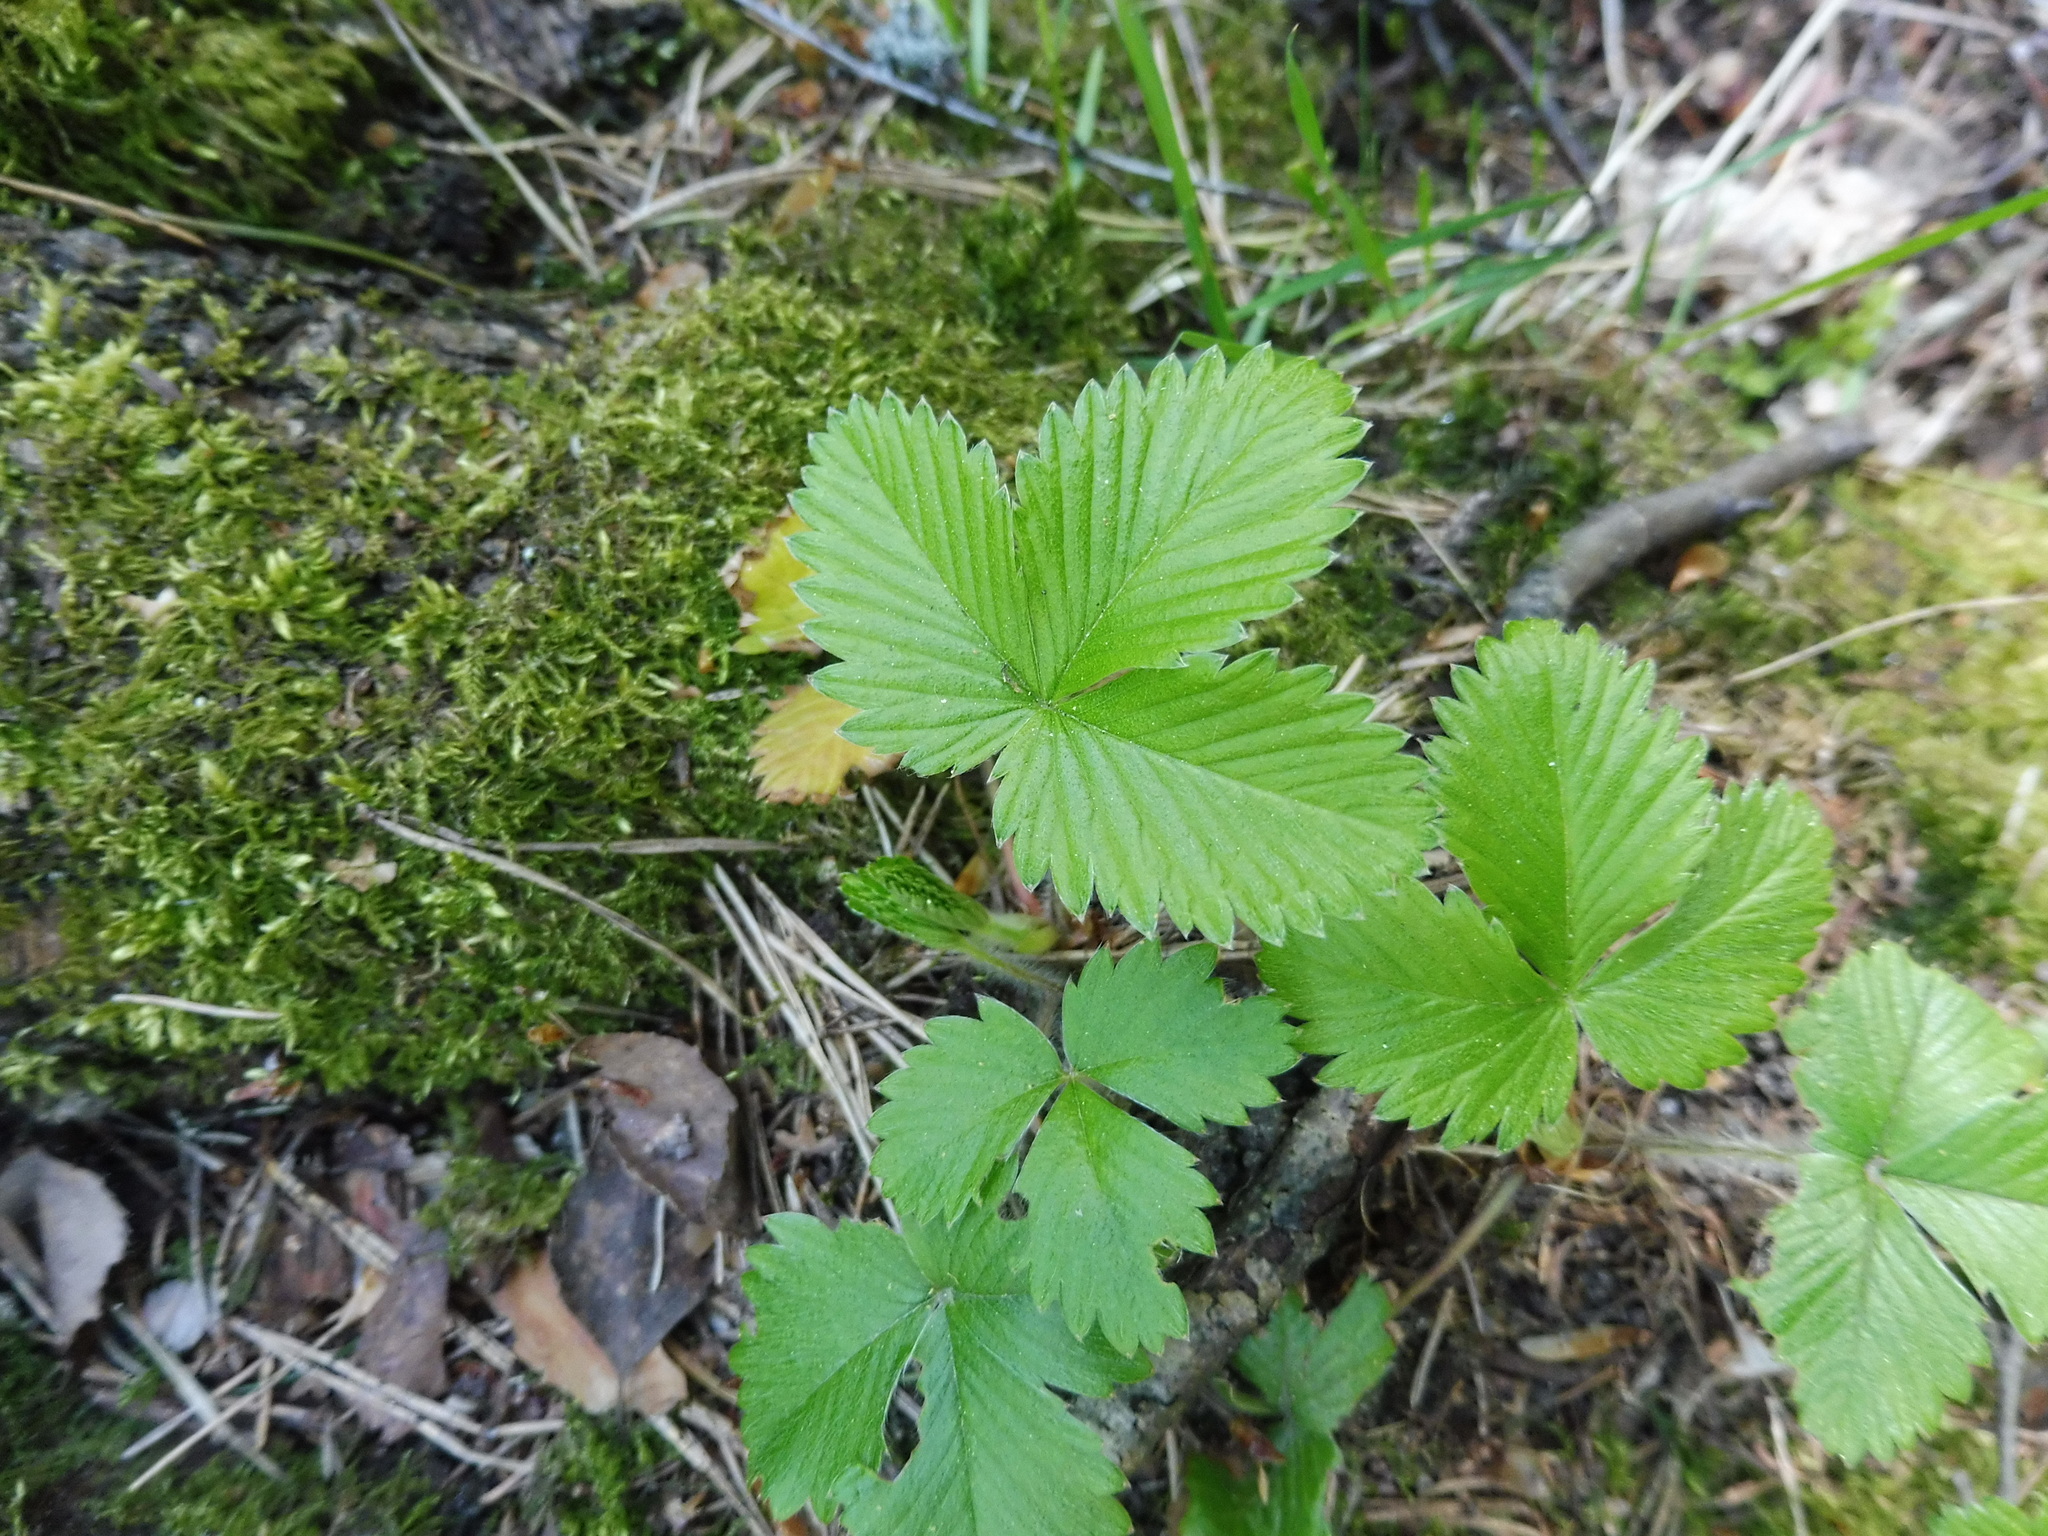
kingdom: Plantae
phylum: Tracheophyta
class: Magnoliopsida
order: Rosales
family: Rosaceae
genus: Fragaria
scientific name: Fragaria vesca
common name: Wild strawberry
